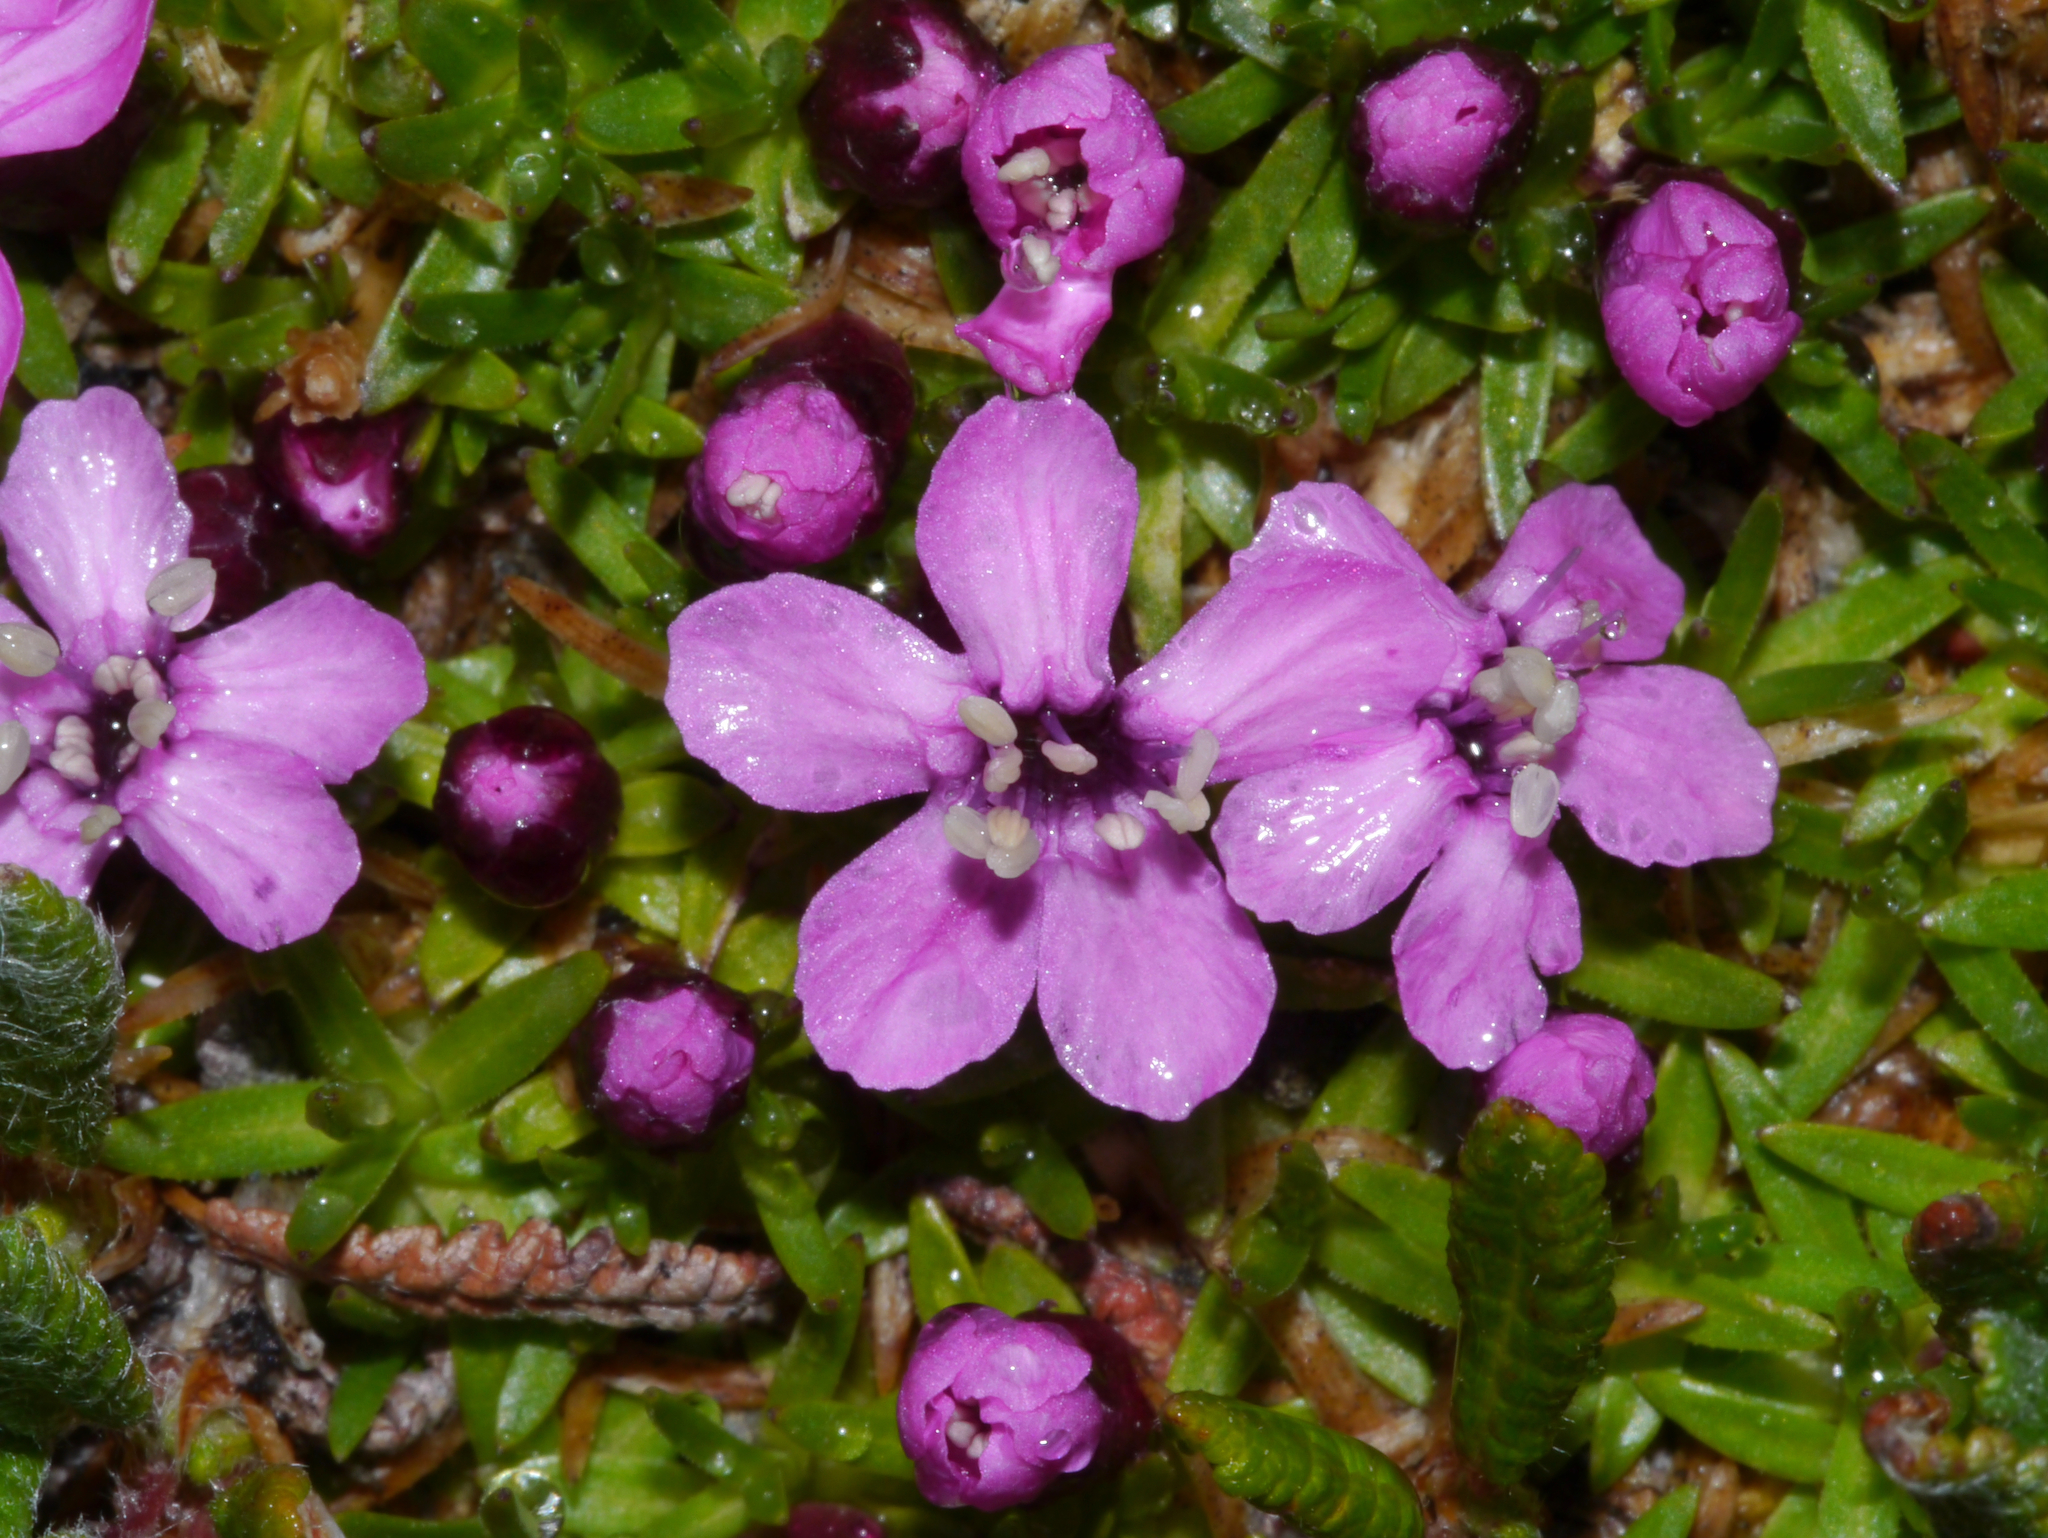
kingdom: Plantae
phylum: Tracheophyta
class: Magnoliopsida
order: Caryophyllales
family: Caryophyllaceae
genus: Silene
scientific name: Silene acaulis
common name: Moss campion
